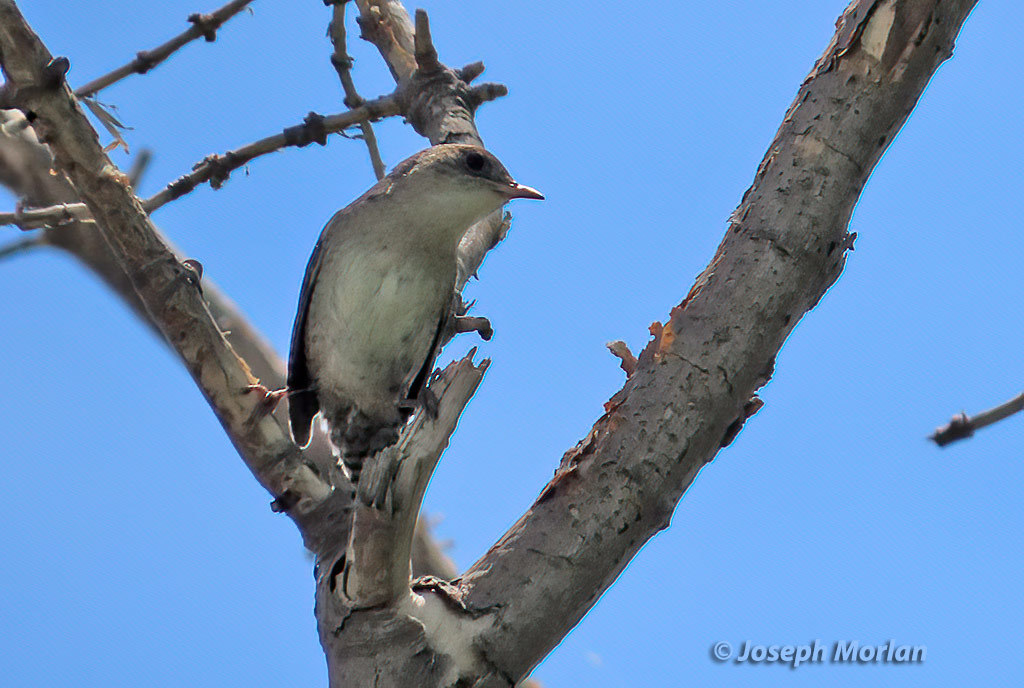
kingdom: Animalia
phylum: Chordata
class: Aves
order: Passeriformes
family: Troglodytidae
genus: Troglodytes
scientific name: Troglodytes aedon
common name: House wren
